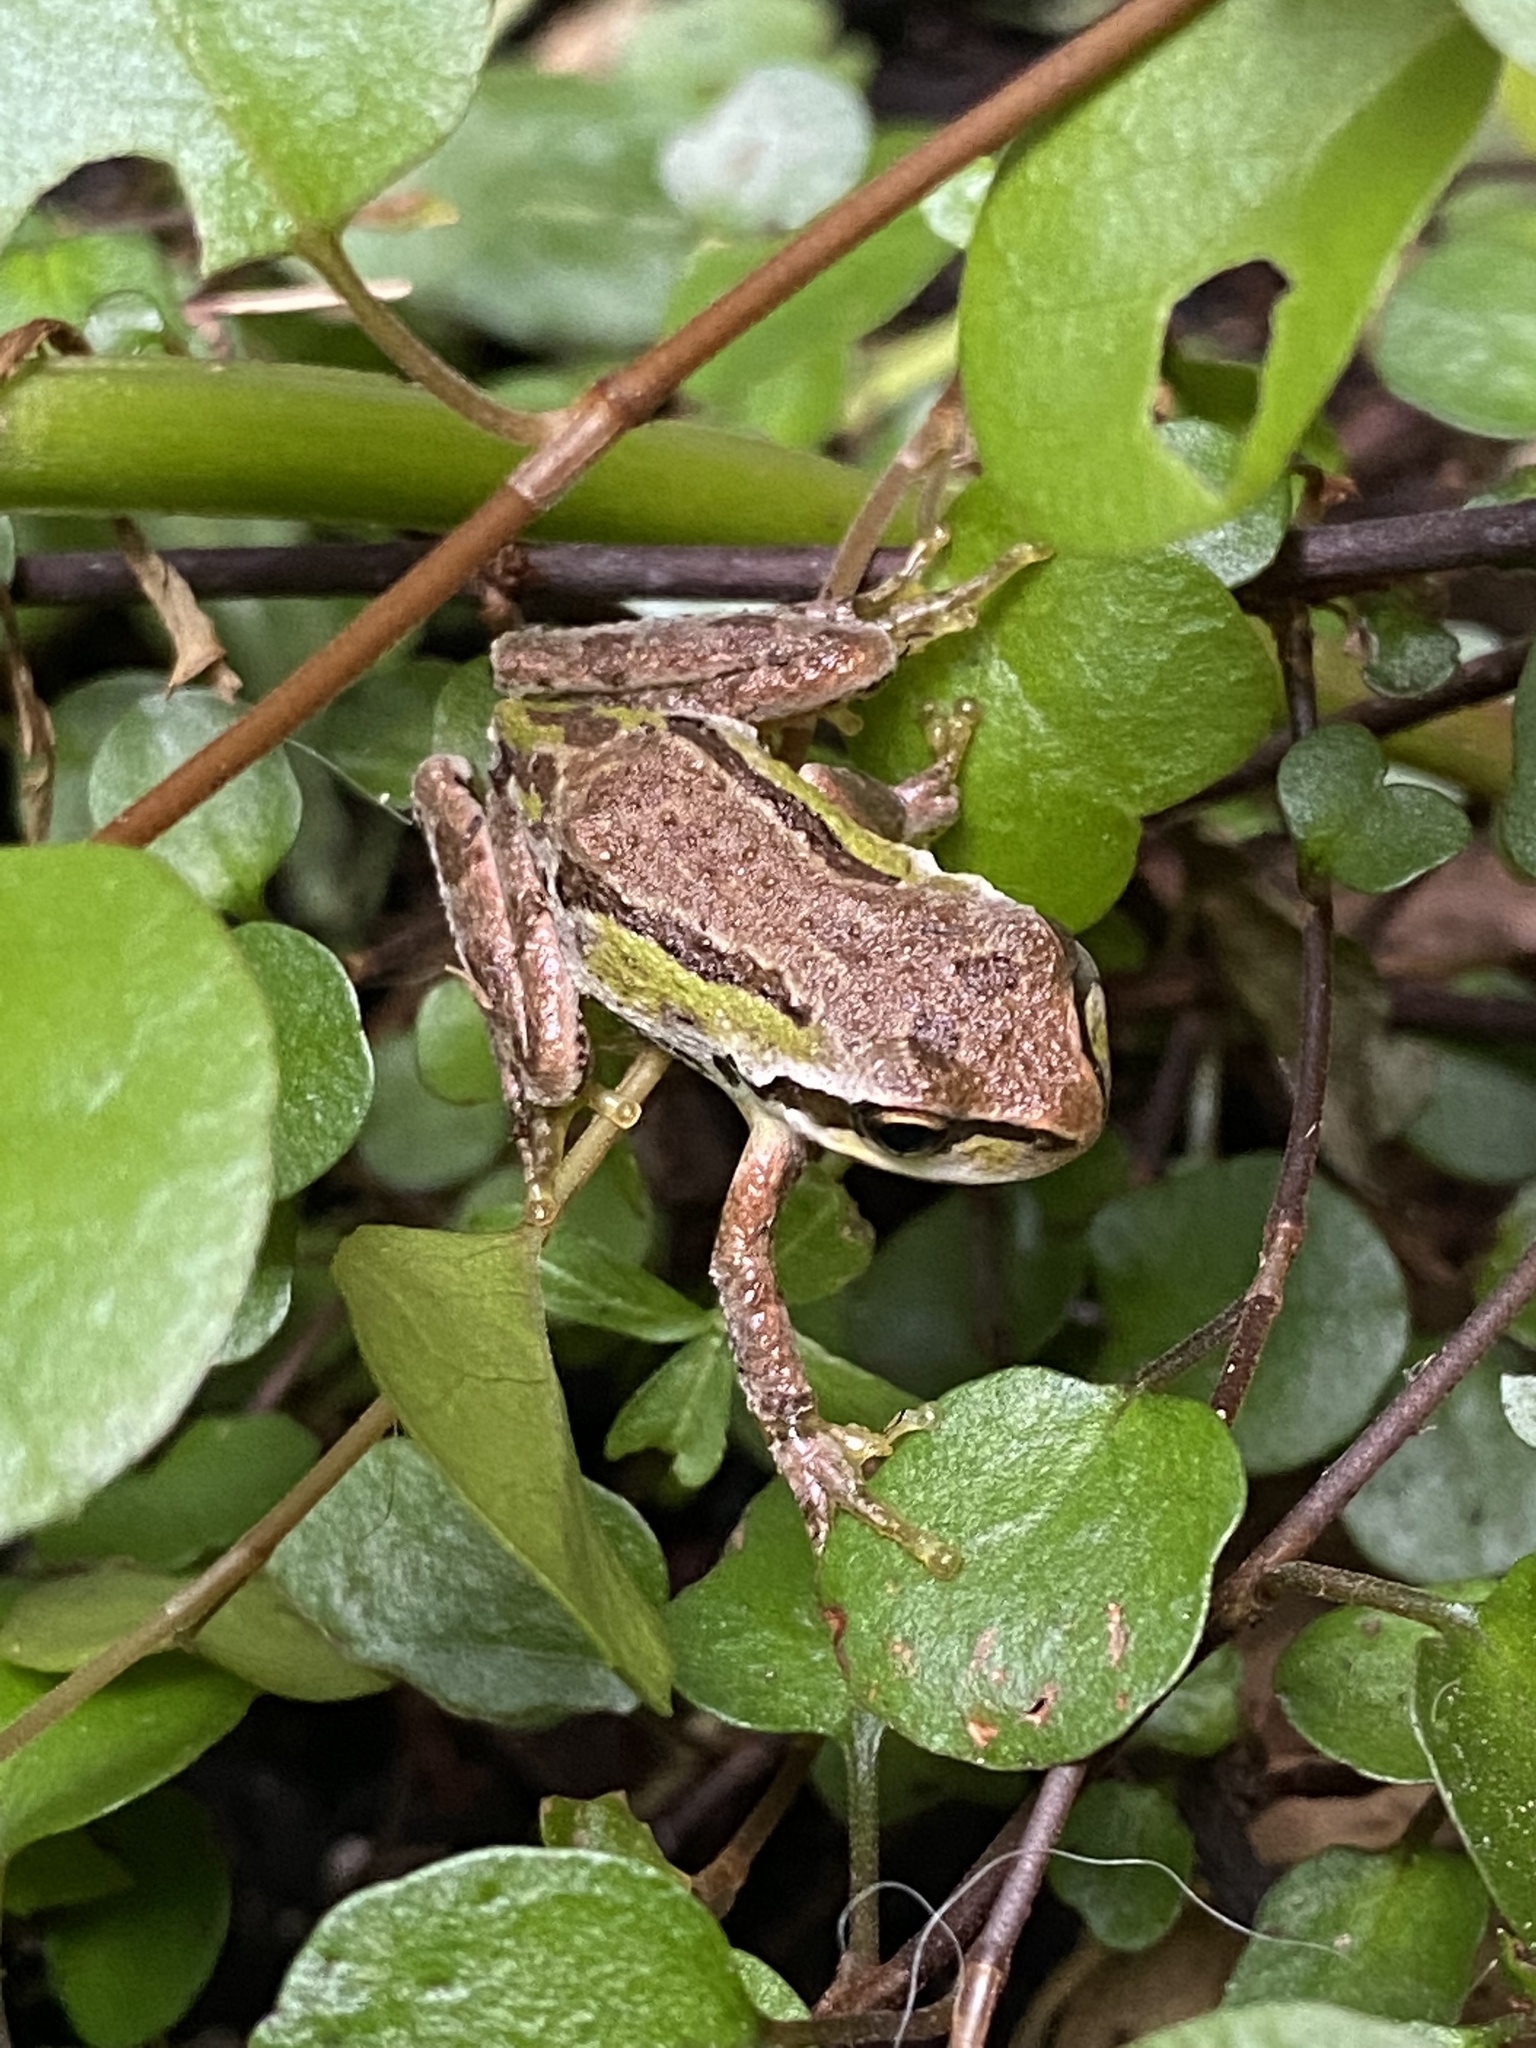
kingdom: Animalia
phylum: Chordata
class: Amphibia
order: Anura
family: Hylidae
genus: Pseudacris
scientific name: Pseudacris regilla
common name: Pacific chorus frog
